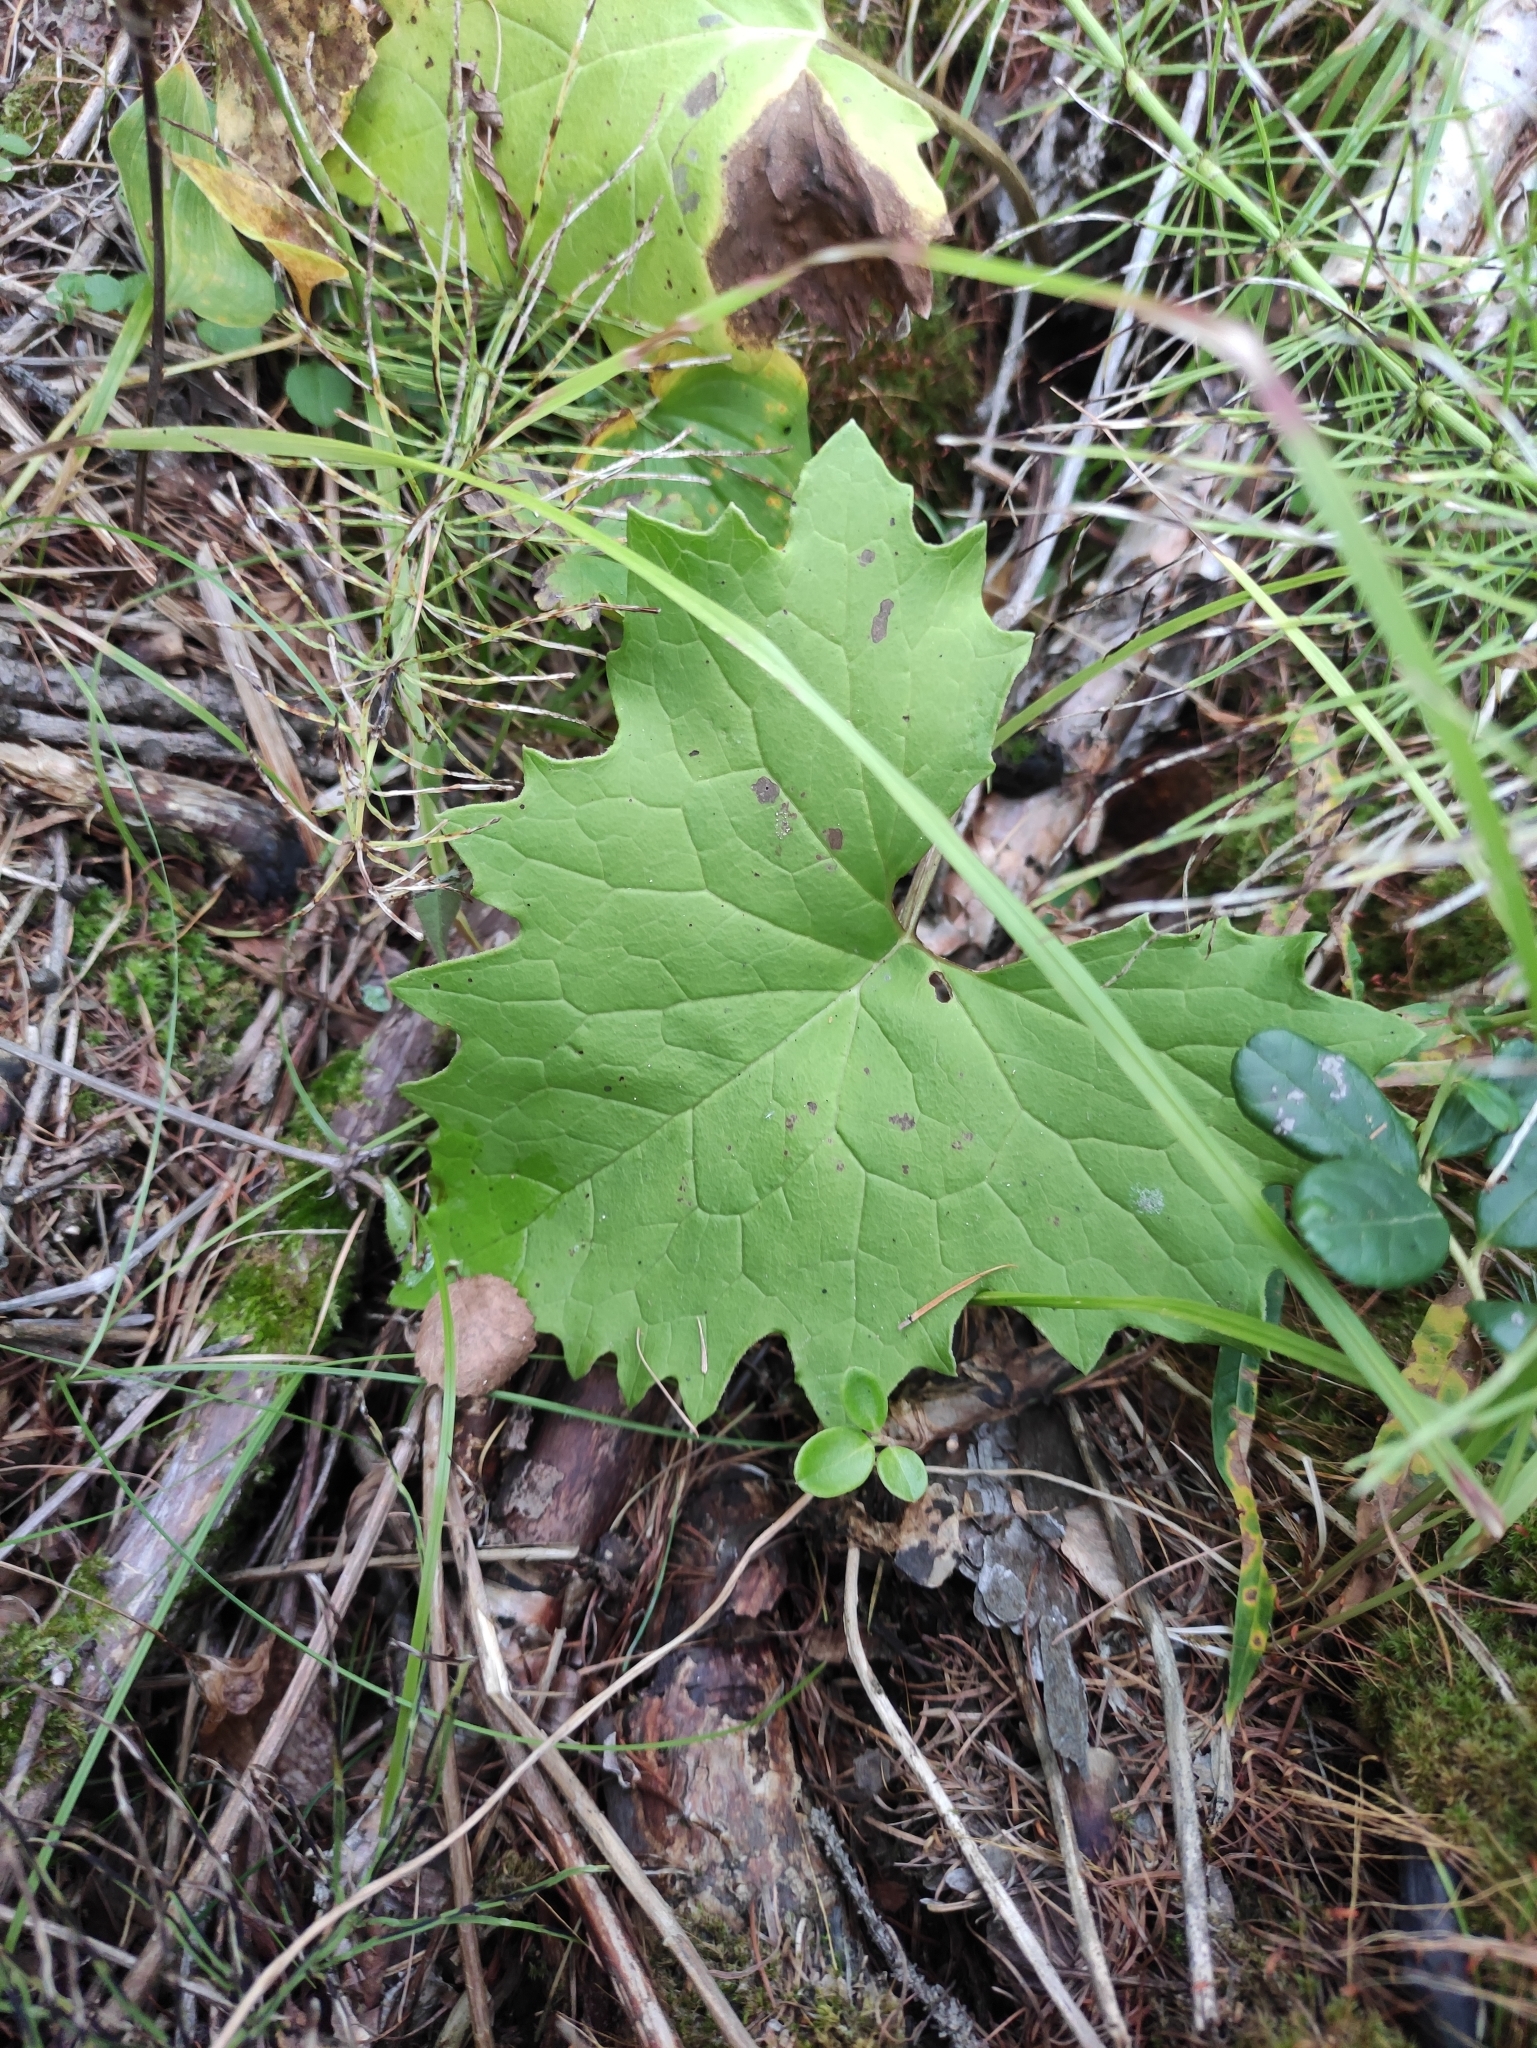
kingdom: Plantae
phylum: Tracheophyta
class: Magnoliopsida
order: Asterales
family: Asteraceae
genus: Petasites
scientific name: Petasites frigidus
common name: Arctic butterbur
